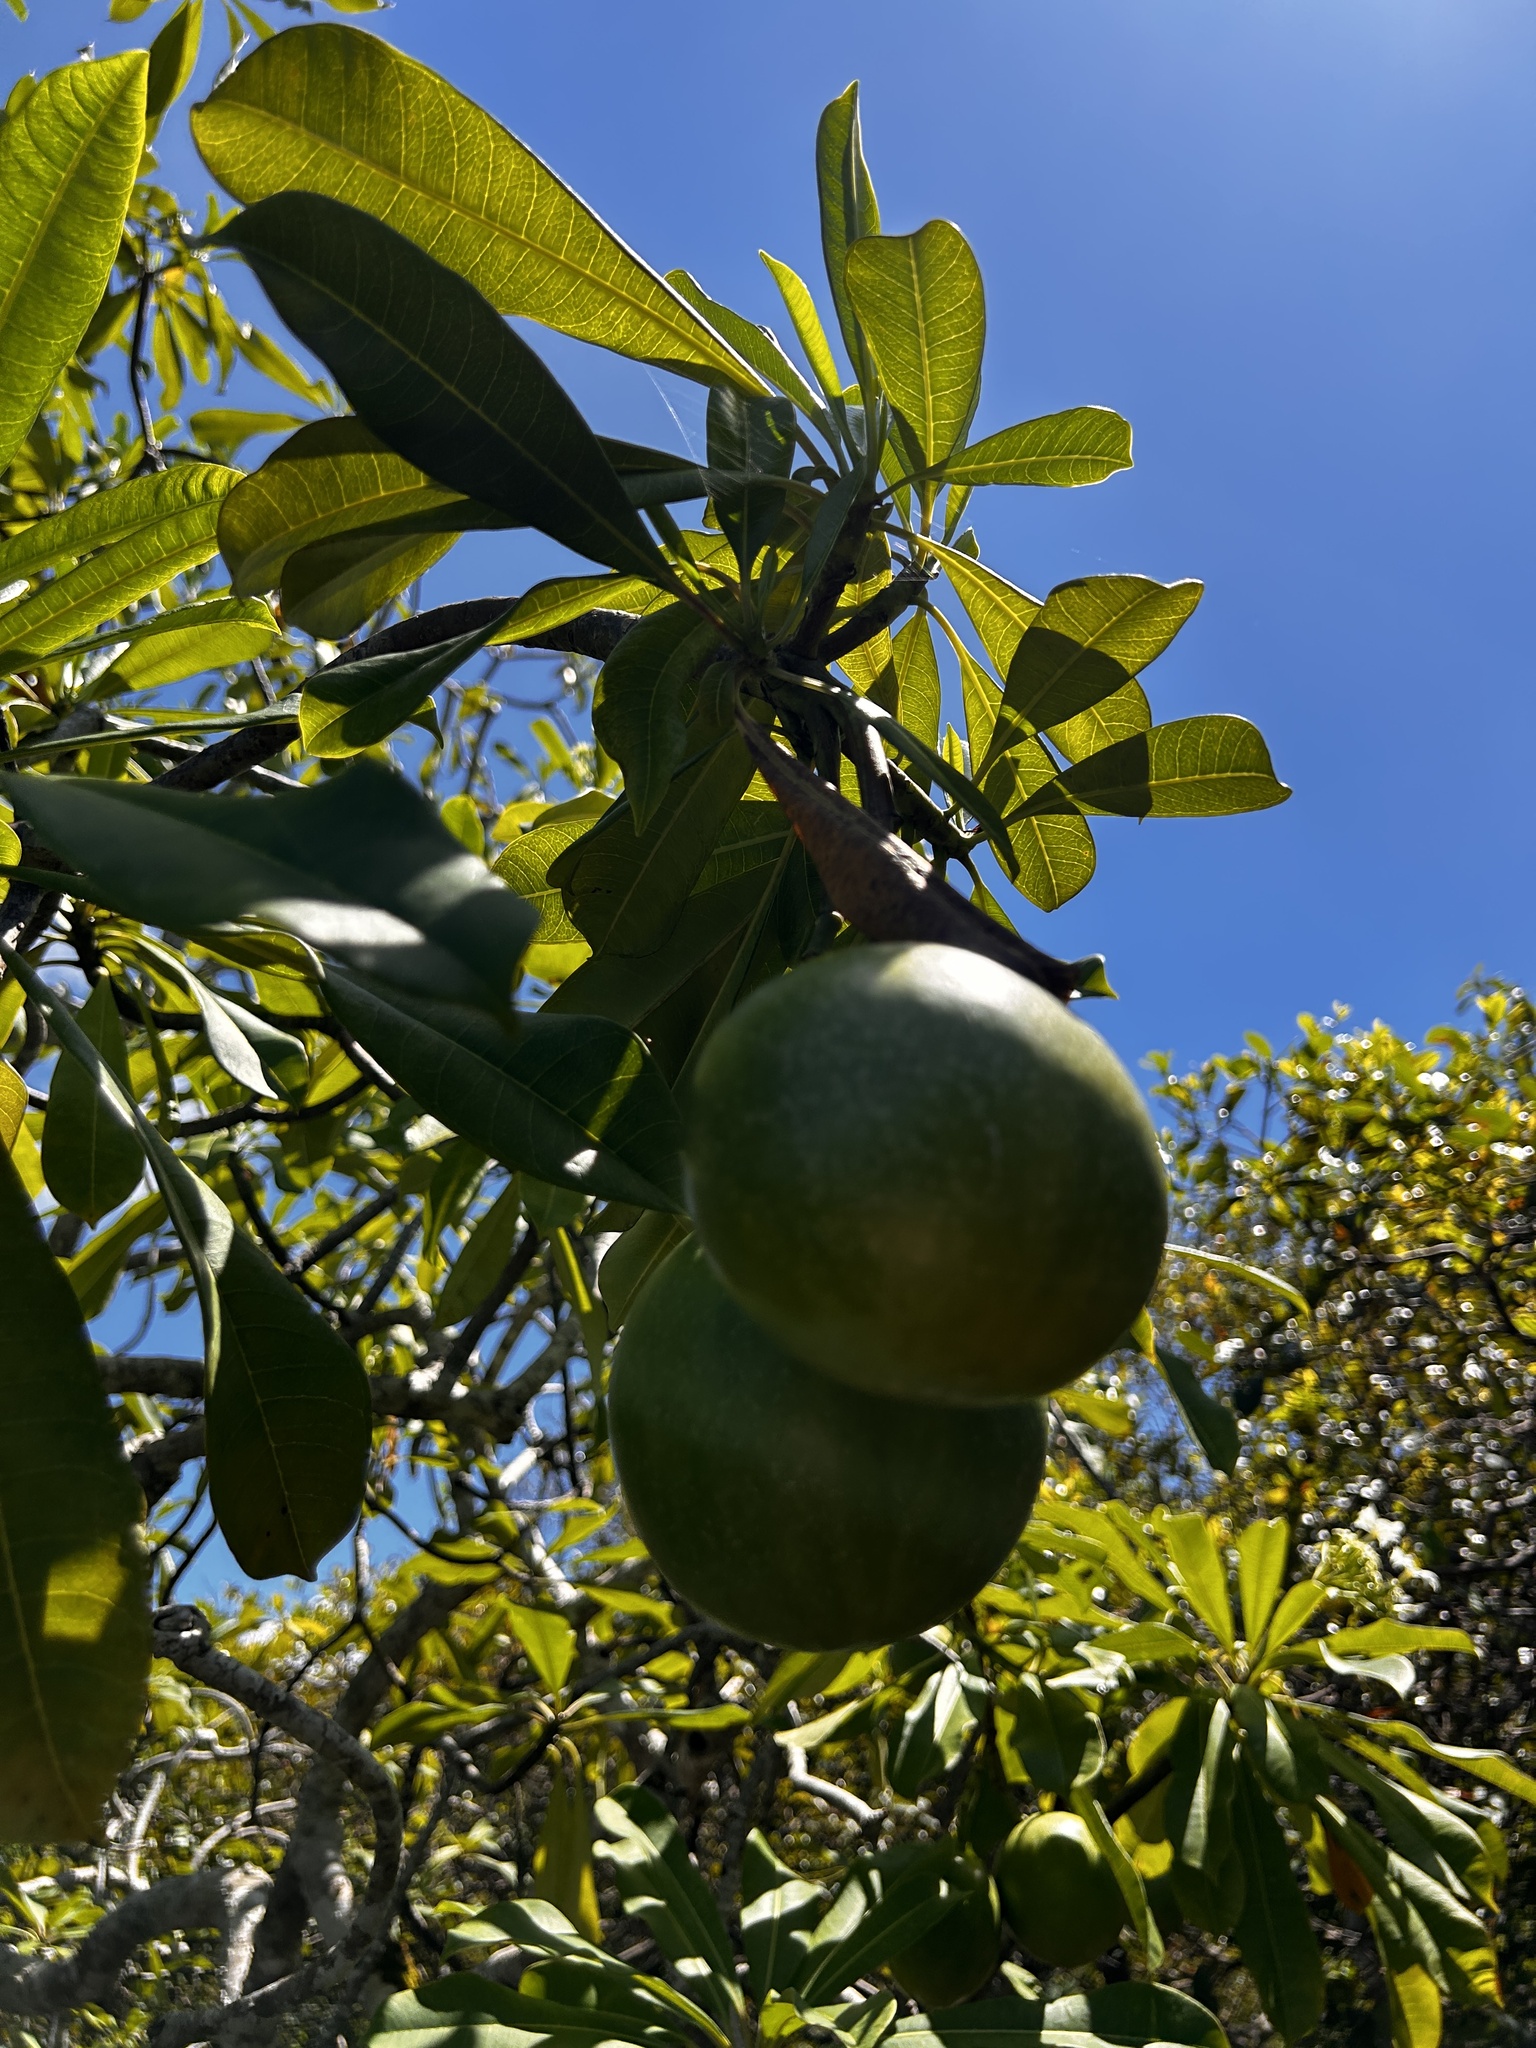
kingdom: Plantae
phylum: Tracheophyta
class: Magnoliopsida
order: Gentianales
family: Apocynaceae
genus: Cerbera
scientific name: Cerbera odollam
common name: Pong-pong
